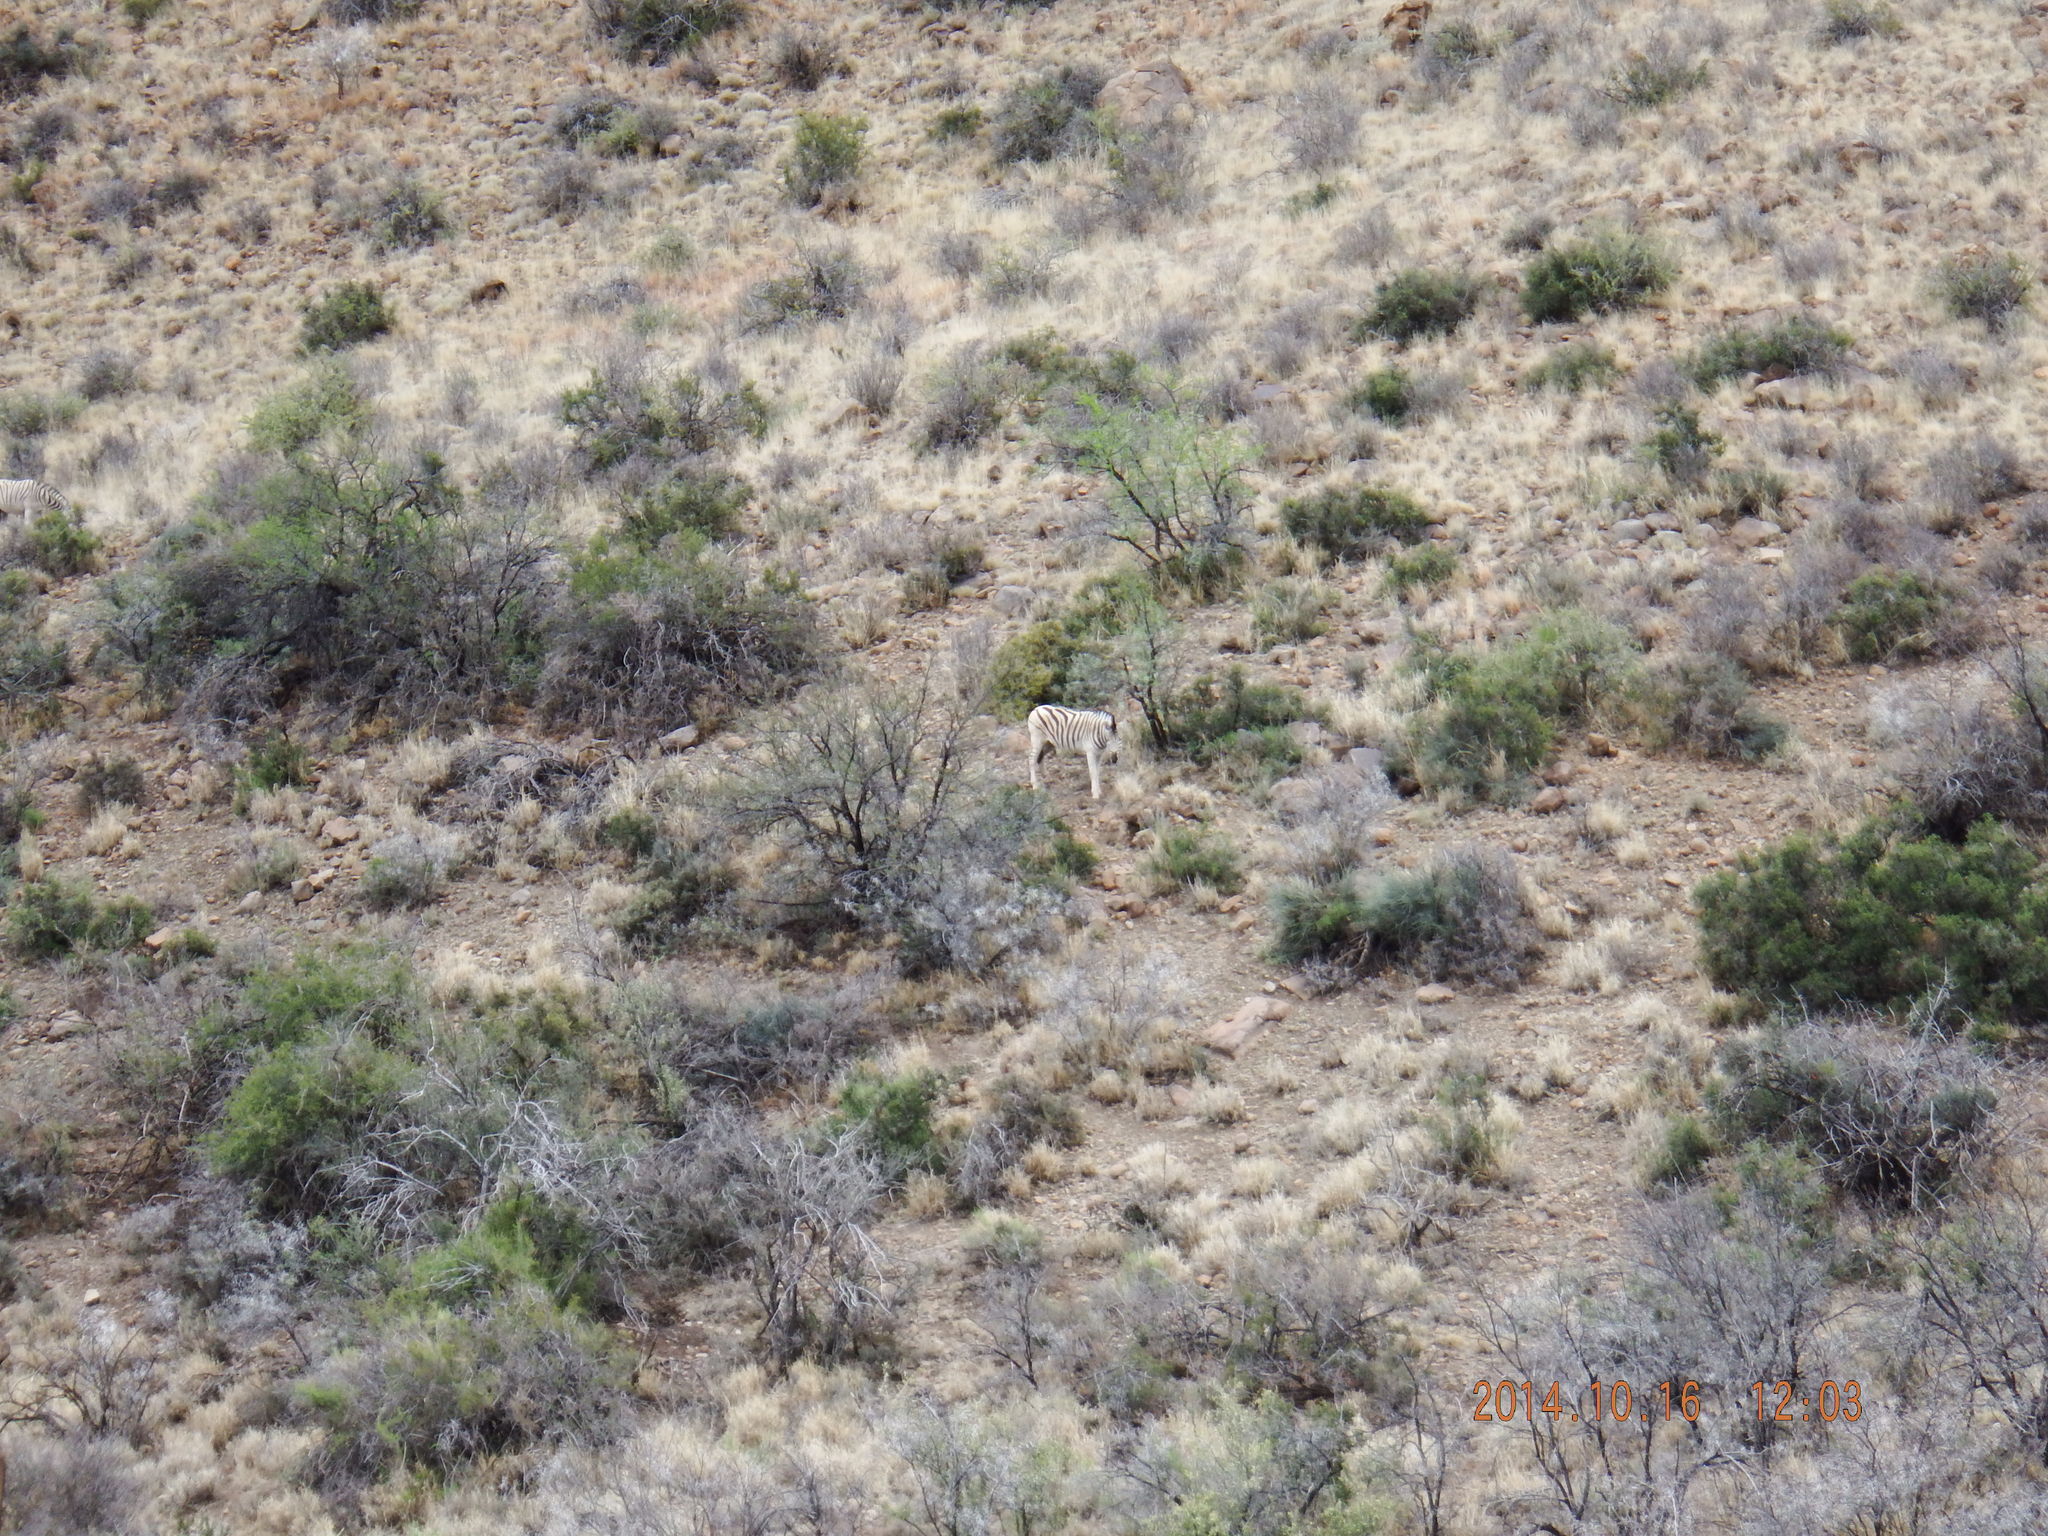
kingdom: Animalia
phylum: Chordata
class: Mammalia
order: Perissodactyla
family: Equidae
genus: Equus
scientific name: Equus quagga
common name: Plains zebra
